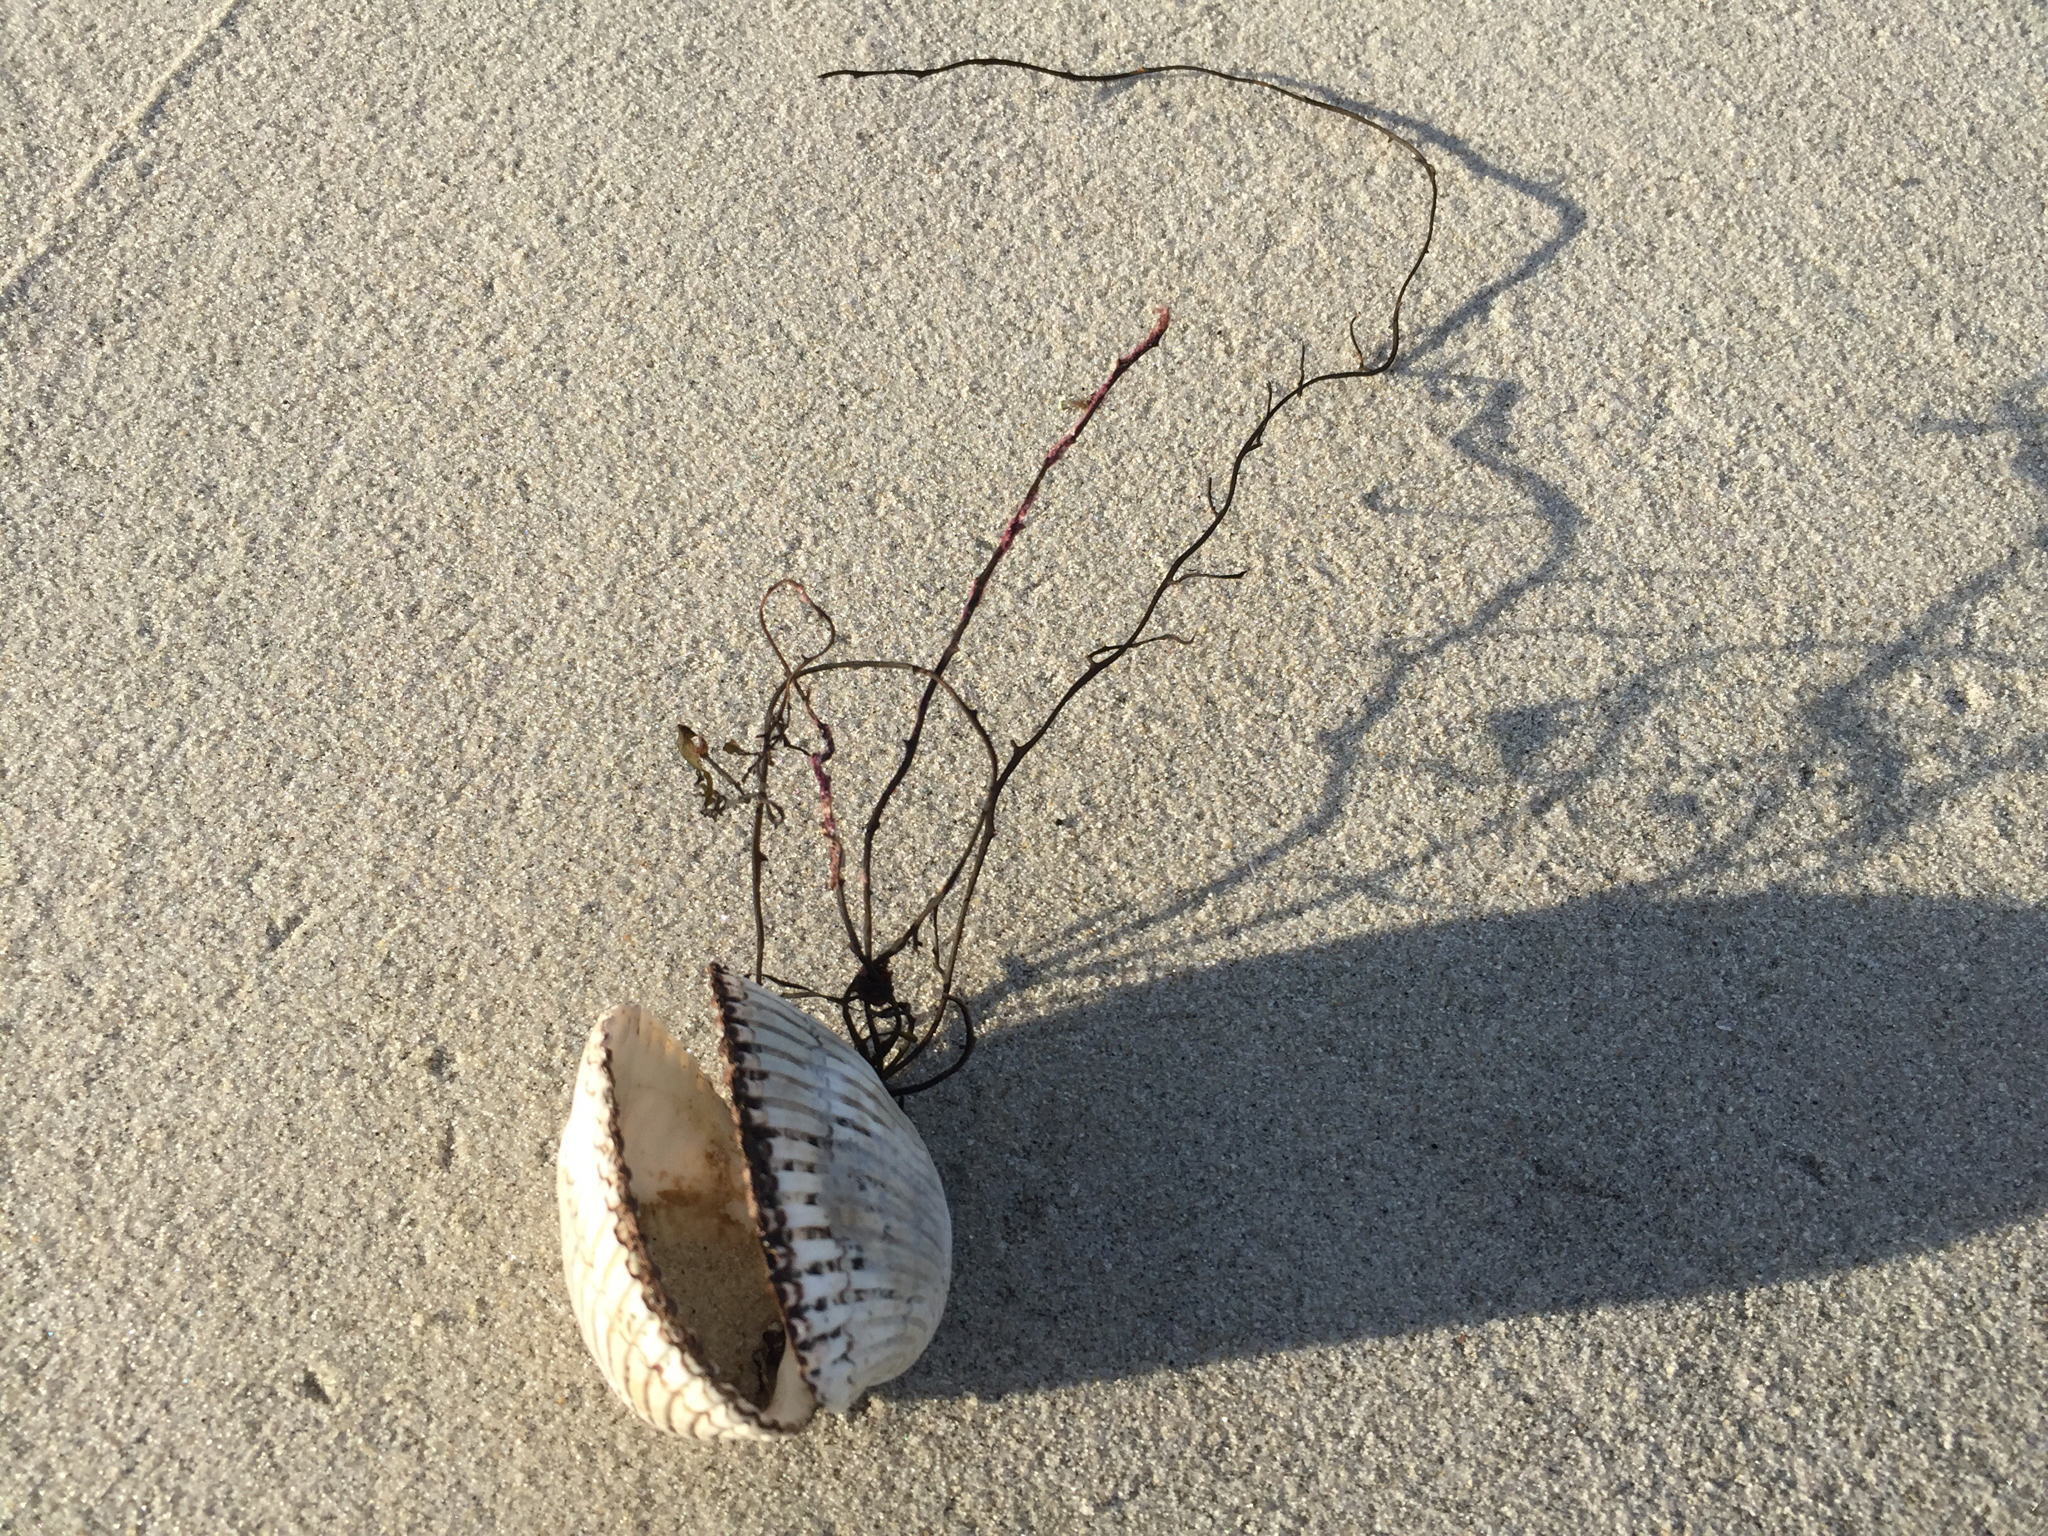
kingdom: Animalia
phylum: Mollusca
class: Bivalvia
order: Arcida
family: Arcidae
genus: Lunarca
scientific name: Lunarca ovalis
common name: Blood ark
